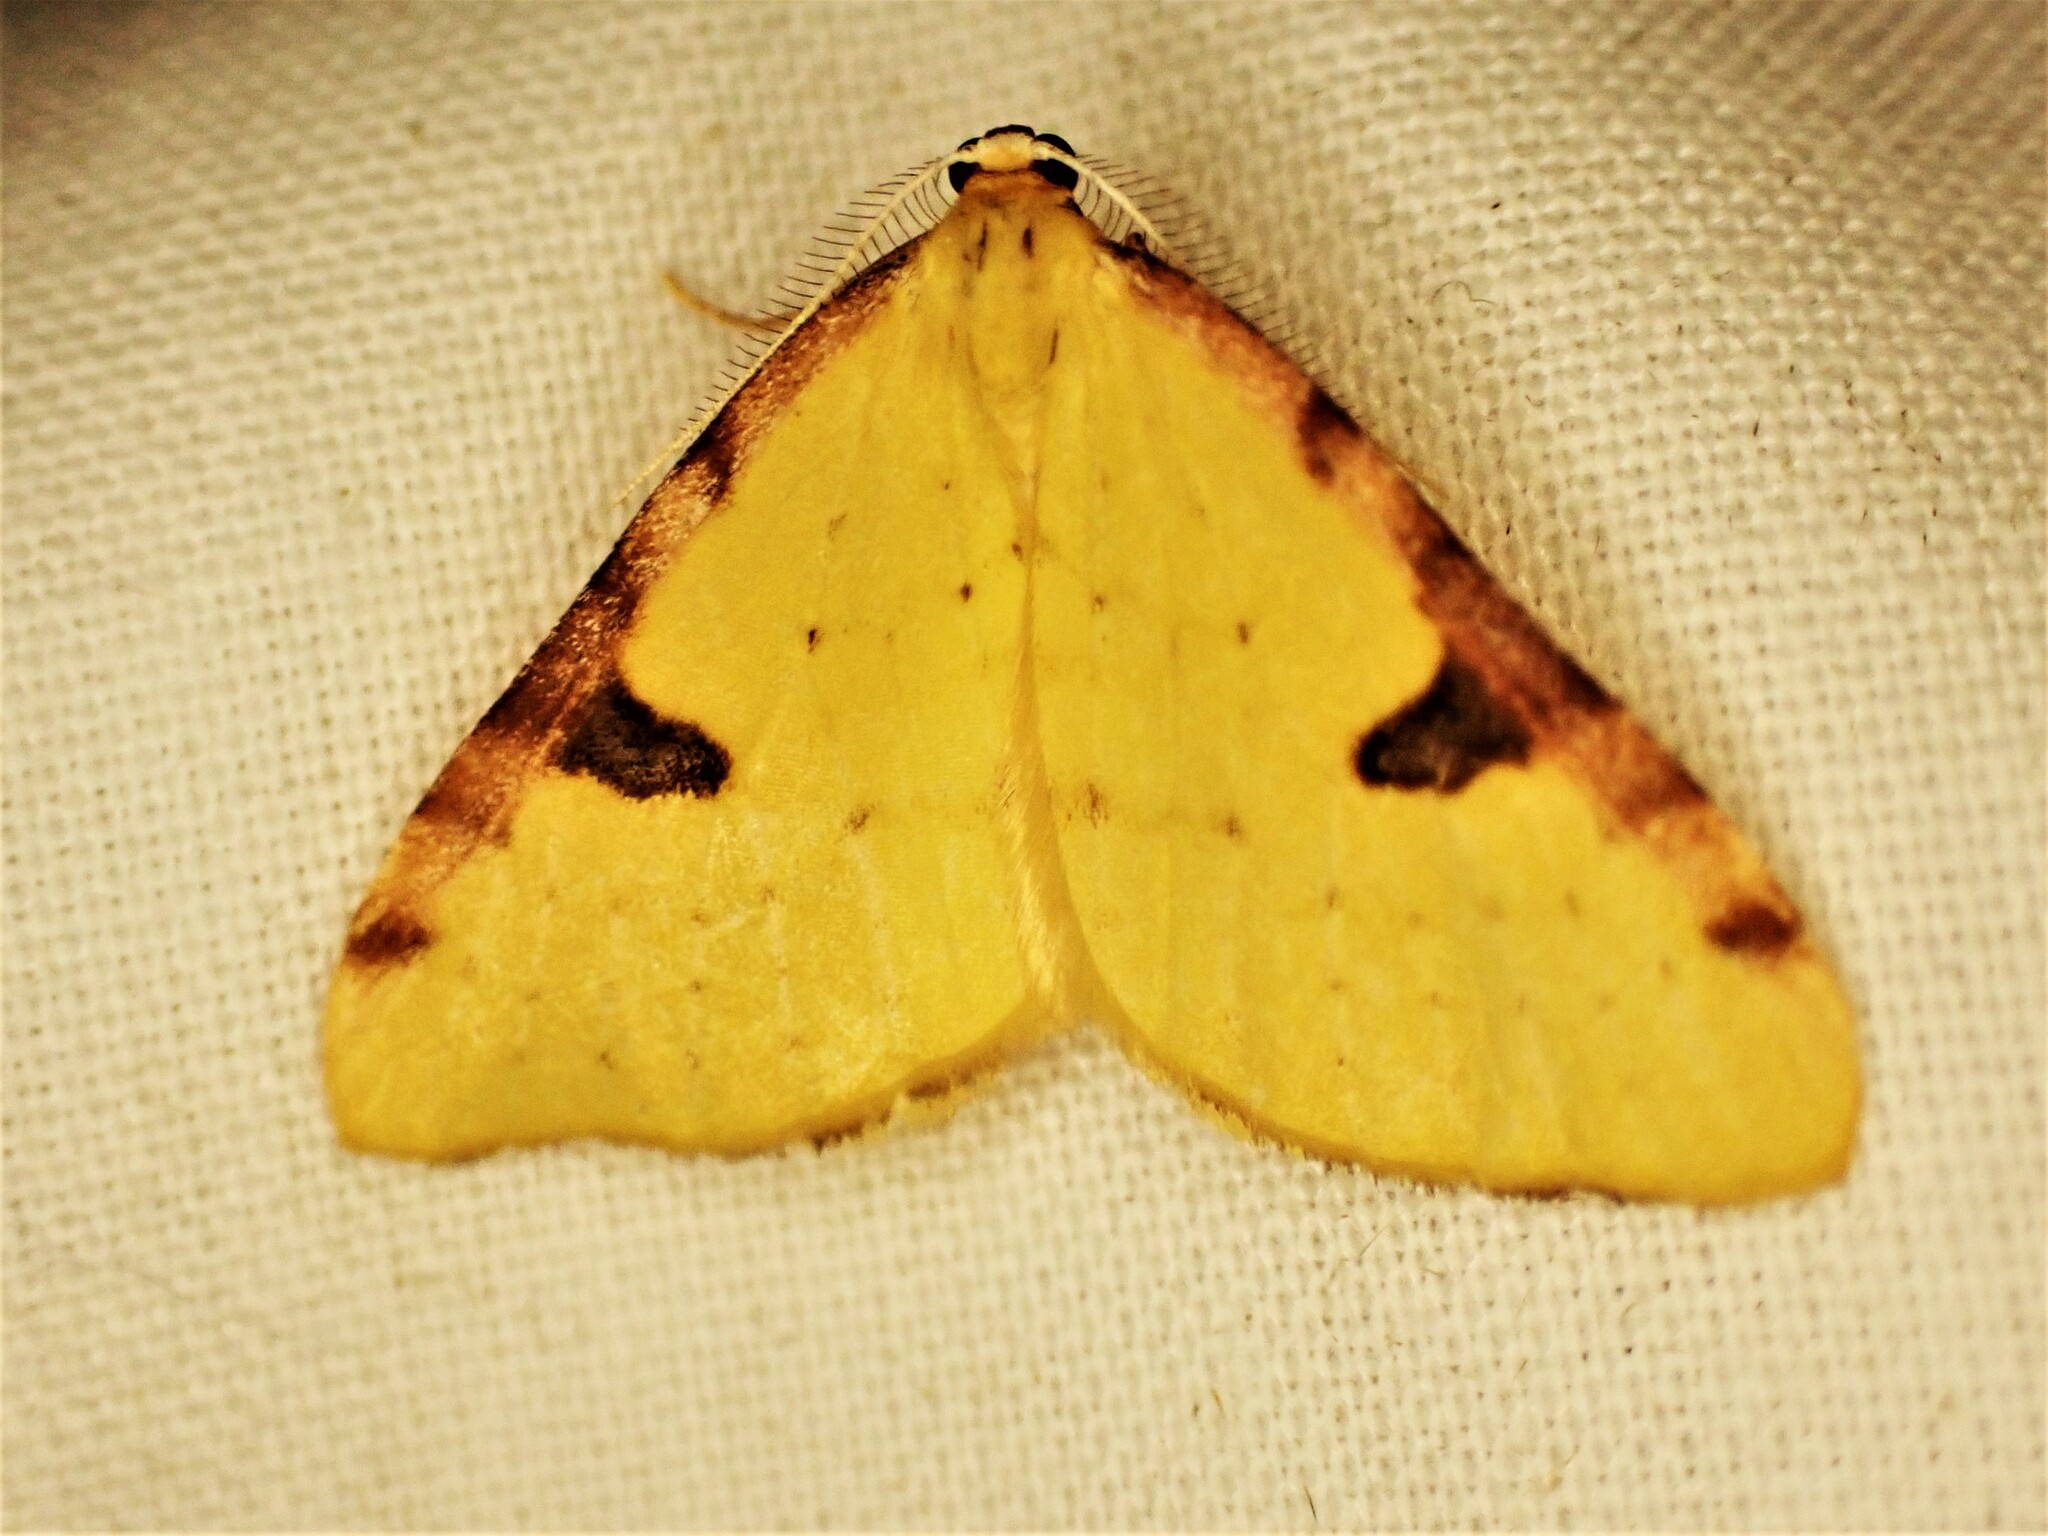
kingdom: Animalia
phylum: Arthropoda
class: Insecta
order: Lepidoptera
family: Geometridae
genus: Epiphryne
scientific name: Epiphryne xanthaspis
